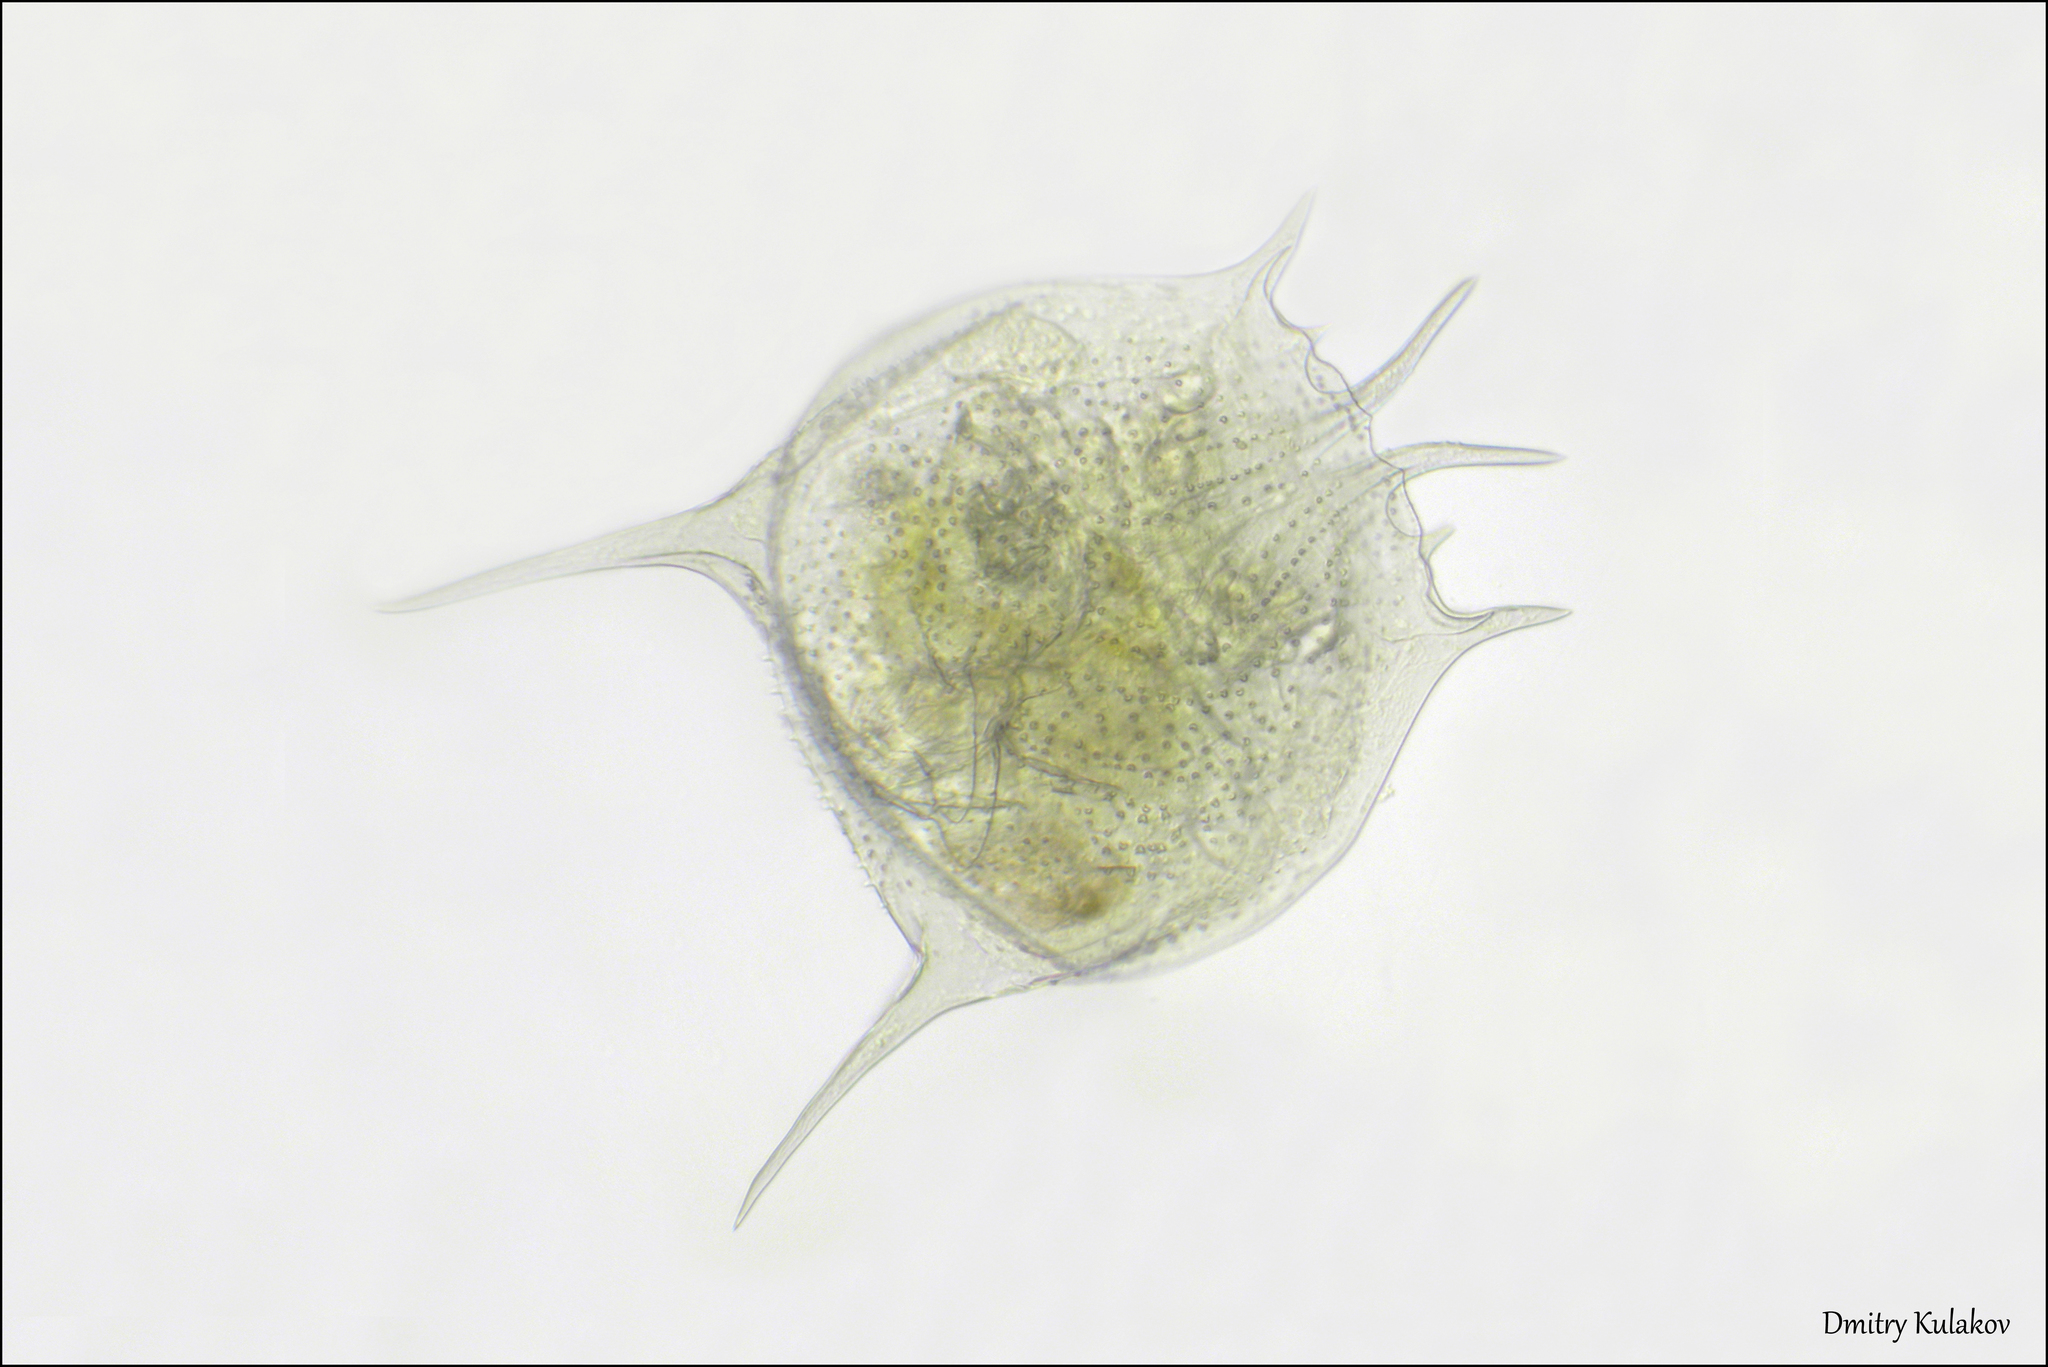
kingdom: Animalia
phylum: Rotifera
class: Eurotatoria
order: Ploima
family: Brachionidae
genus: Brachionus
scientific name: Brachionus quadridentatus
